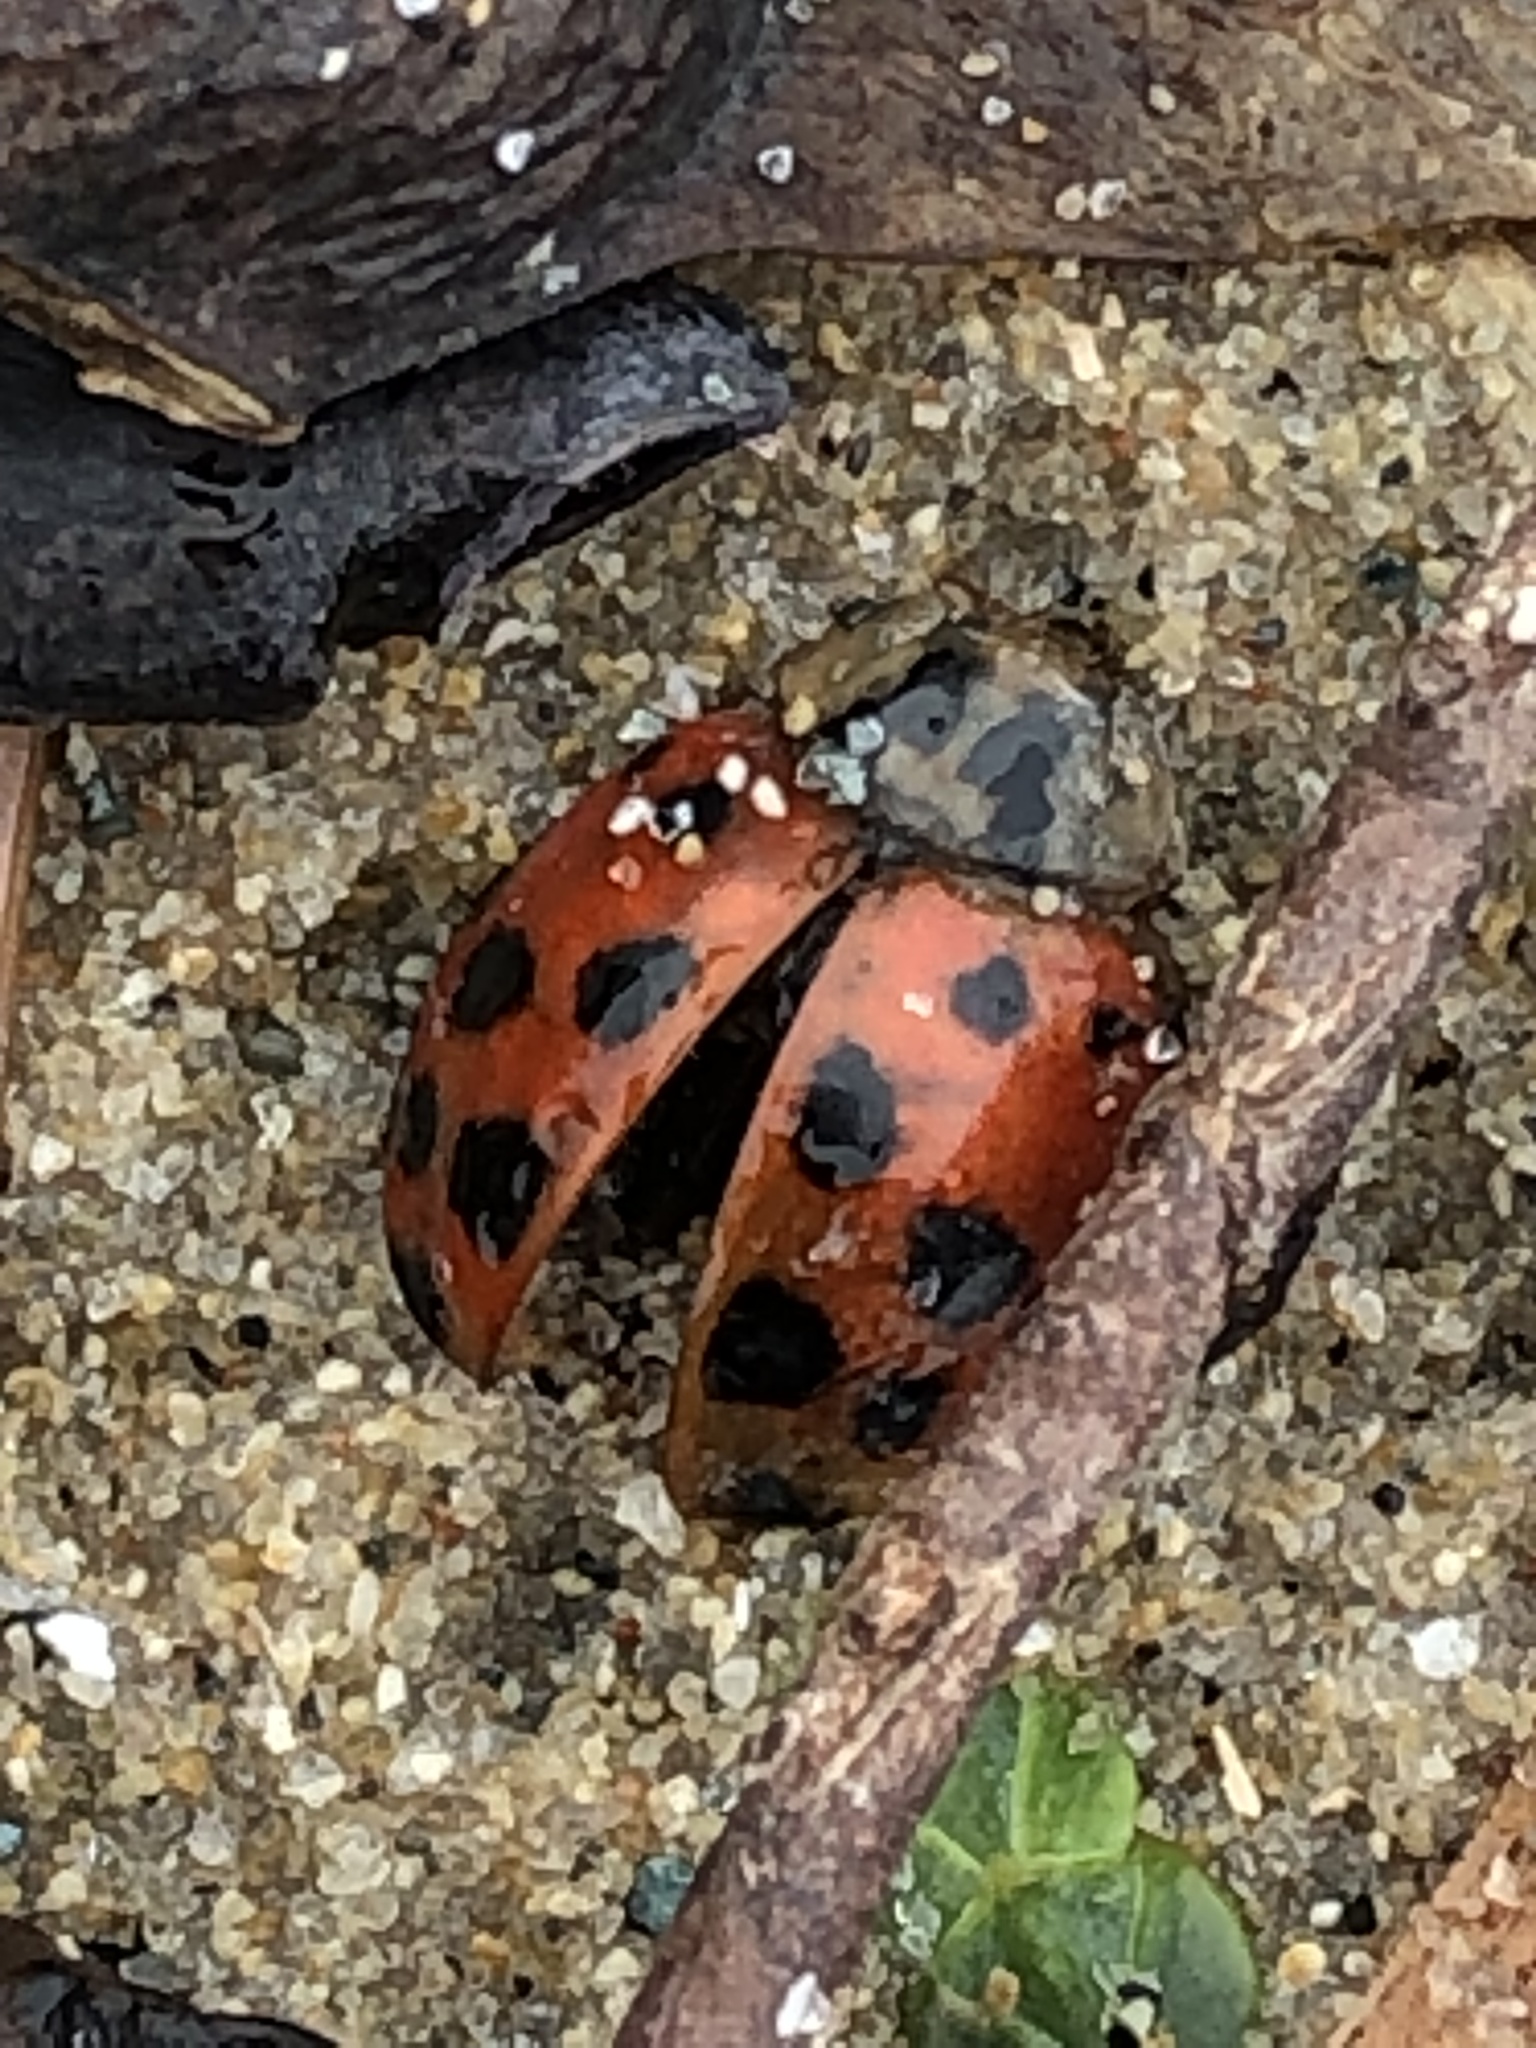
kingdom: Animalia
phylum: Arthropoda
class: Insecta
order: Coleoptera
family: Coccinellidae
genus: Harmonia
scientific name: Harmonia axyridis
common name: Harlequin ladybird
